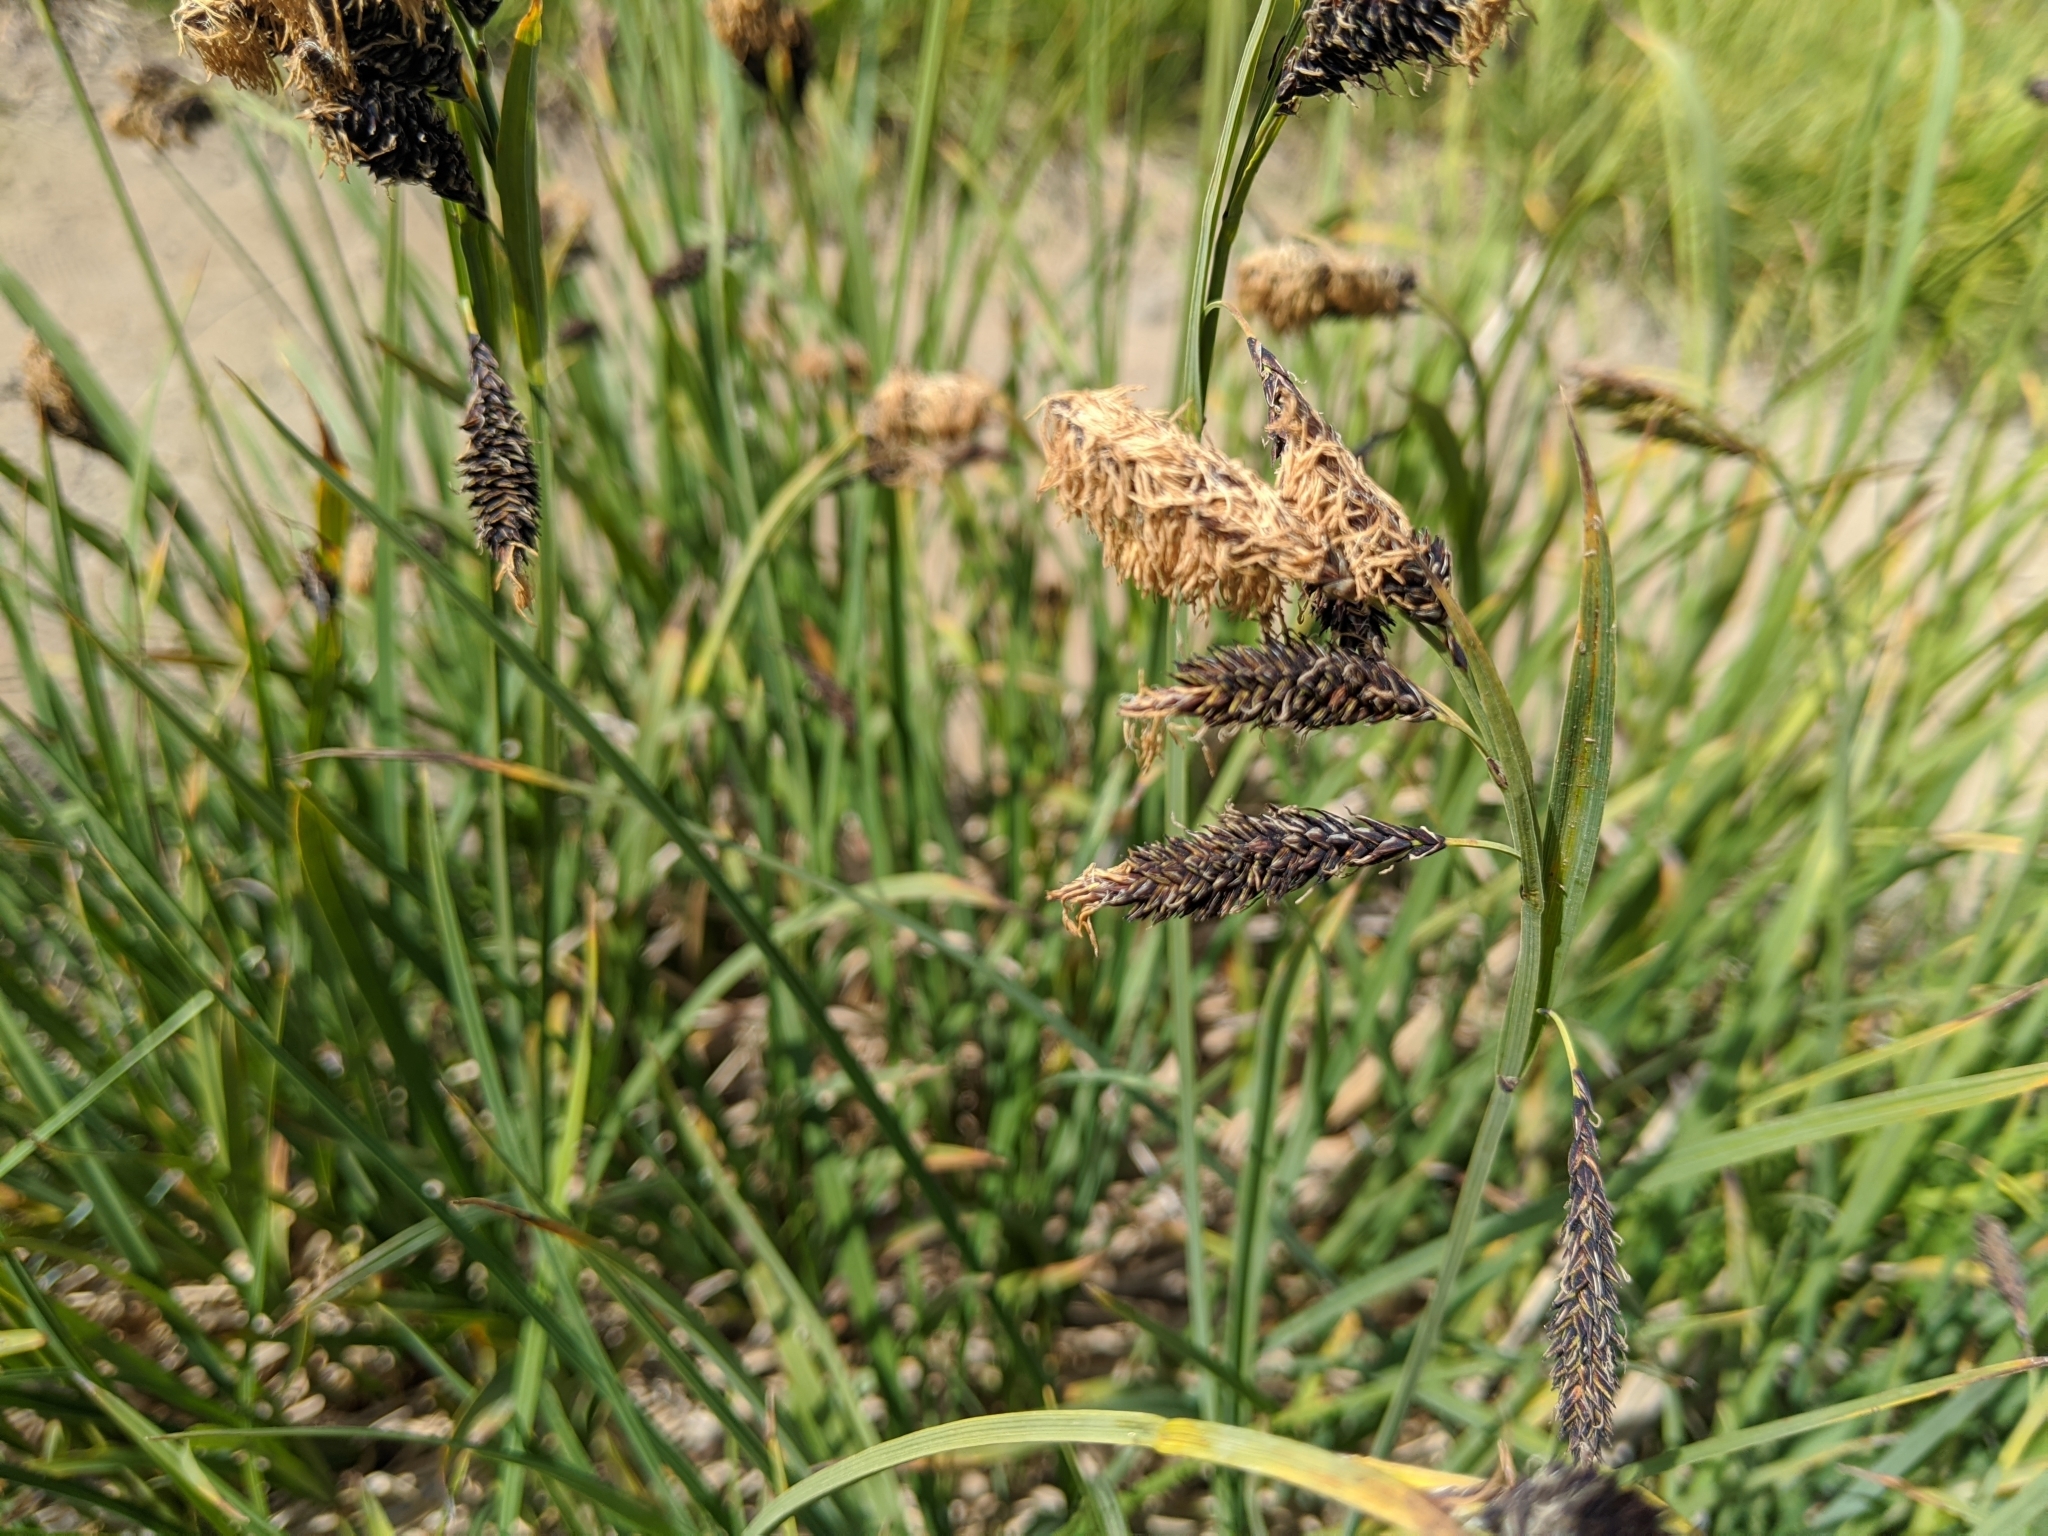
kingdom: Plantae
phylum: Tracheophyta
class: Liliopsida
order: Poales
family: Cyperaceae
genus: Carex
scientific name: Carex spectabilis
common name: Northwestern showy sedge
